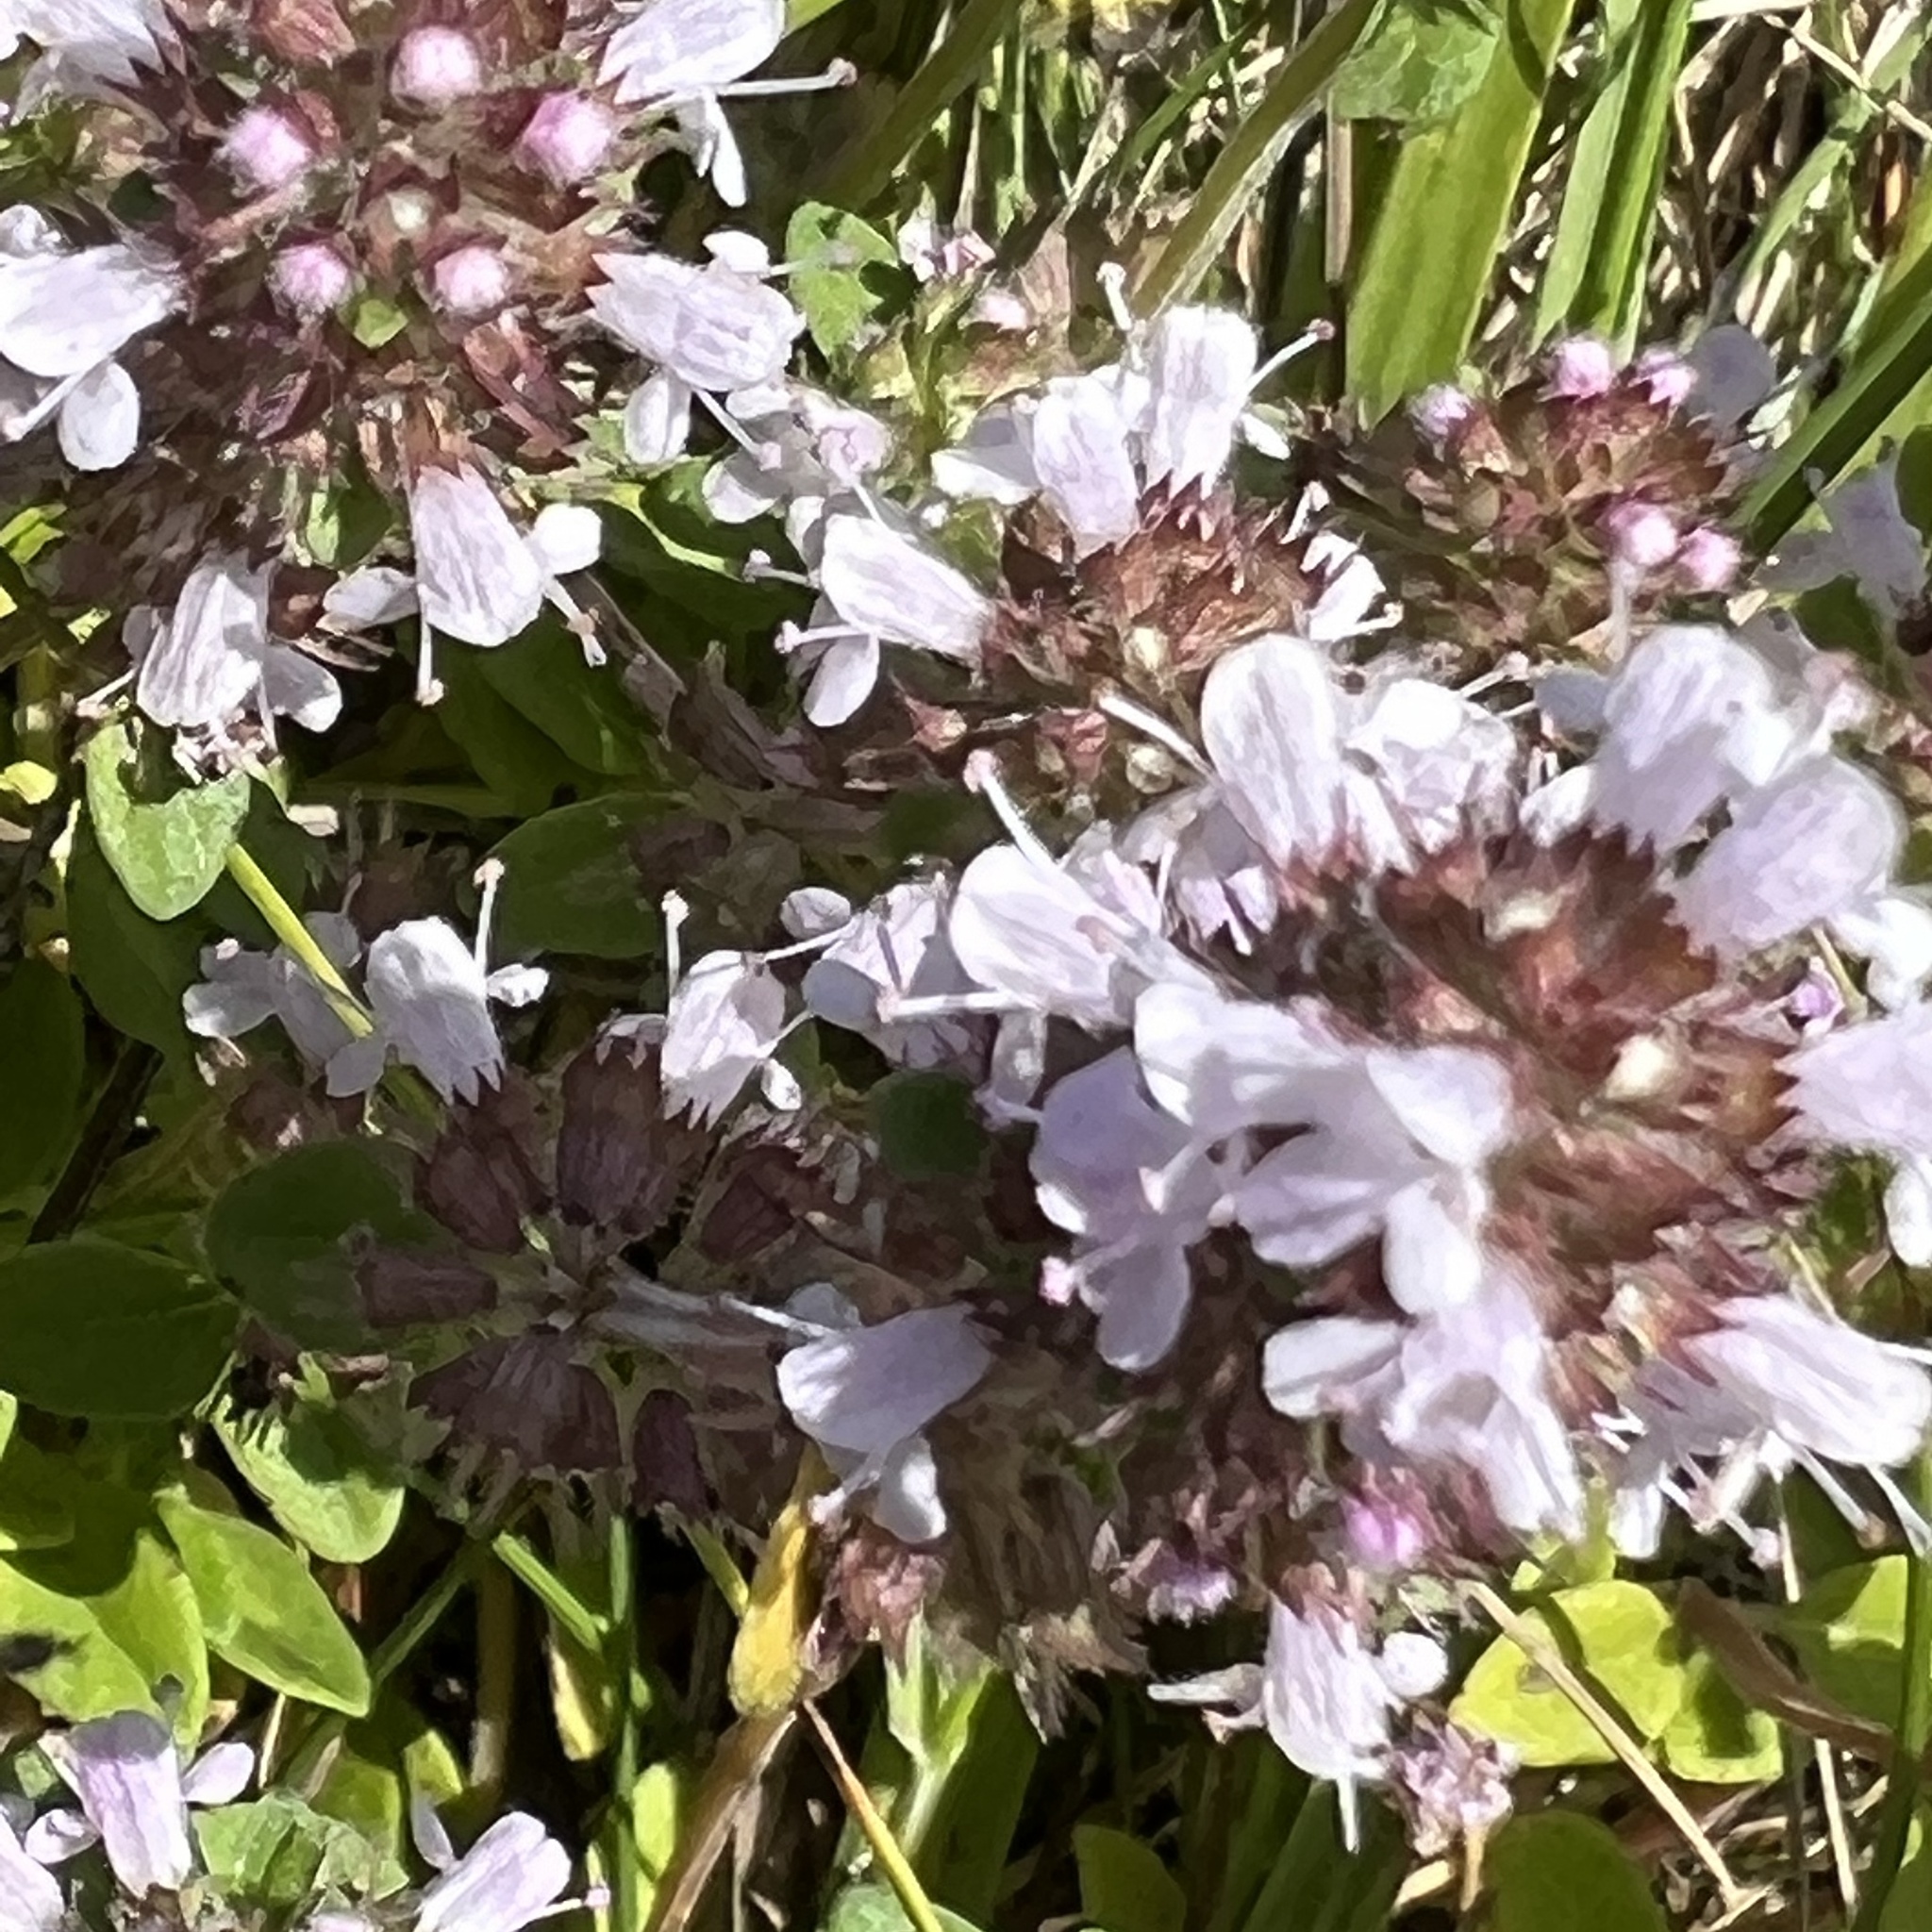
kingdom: Plantae
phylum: Tracheophyta
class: Magnoliopsida
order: Lamiales
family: Lamiaceae
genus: Thymus
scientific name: Thymus pulegioides
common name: Large thyme
